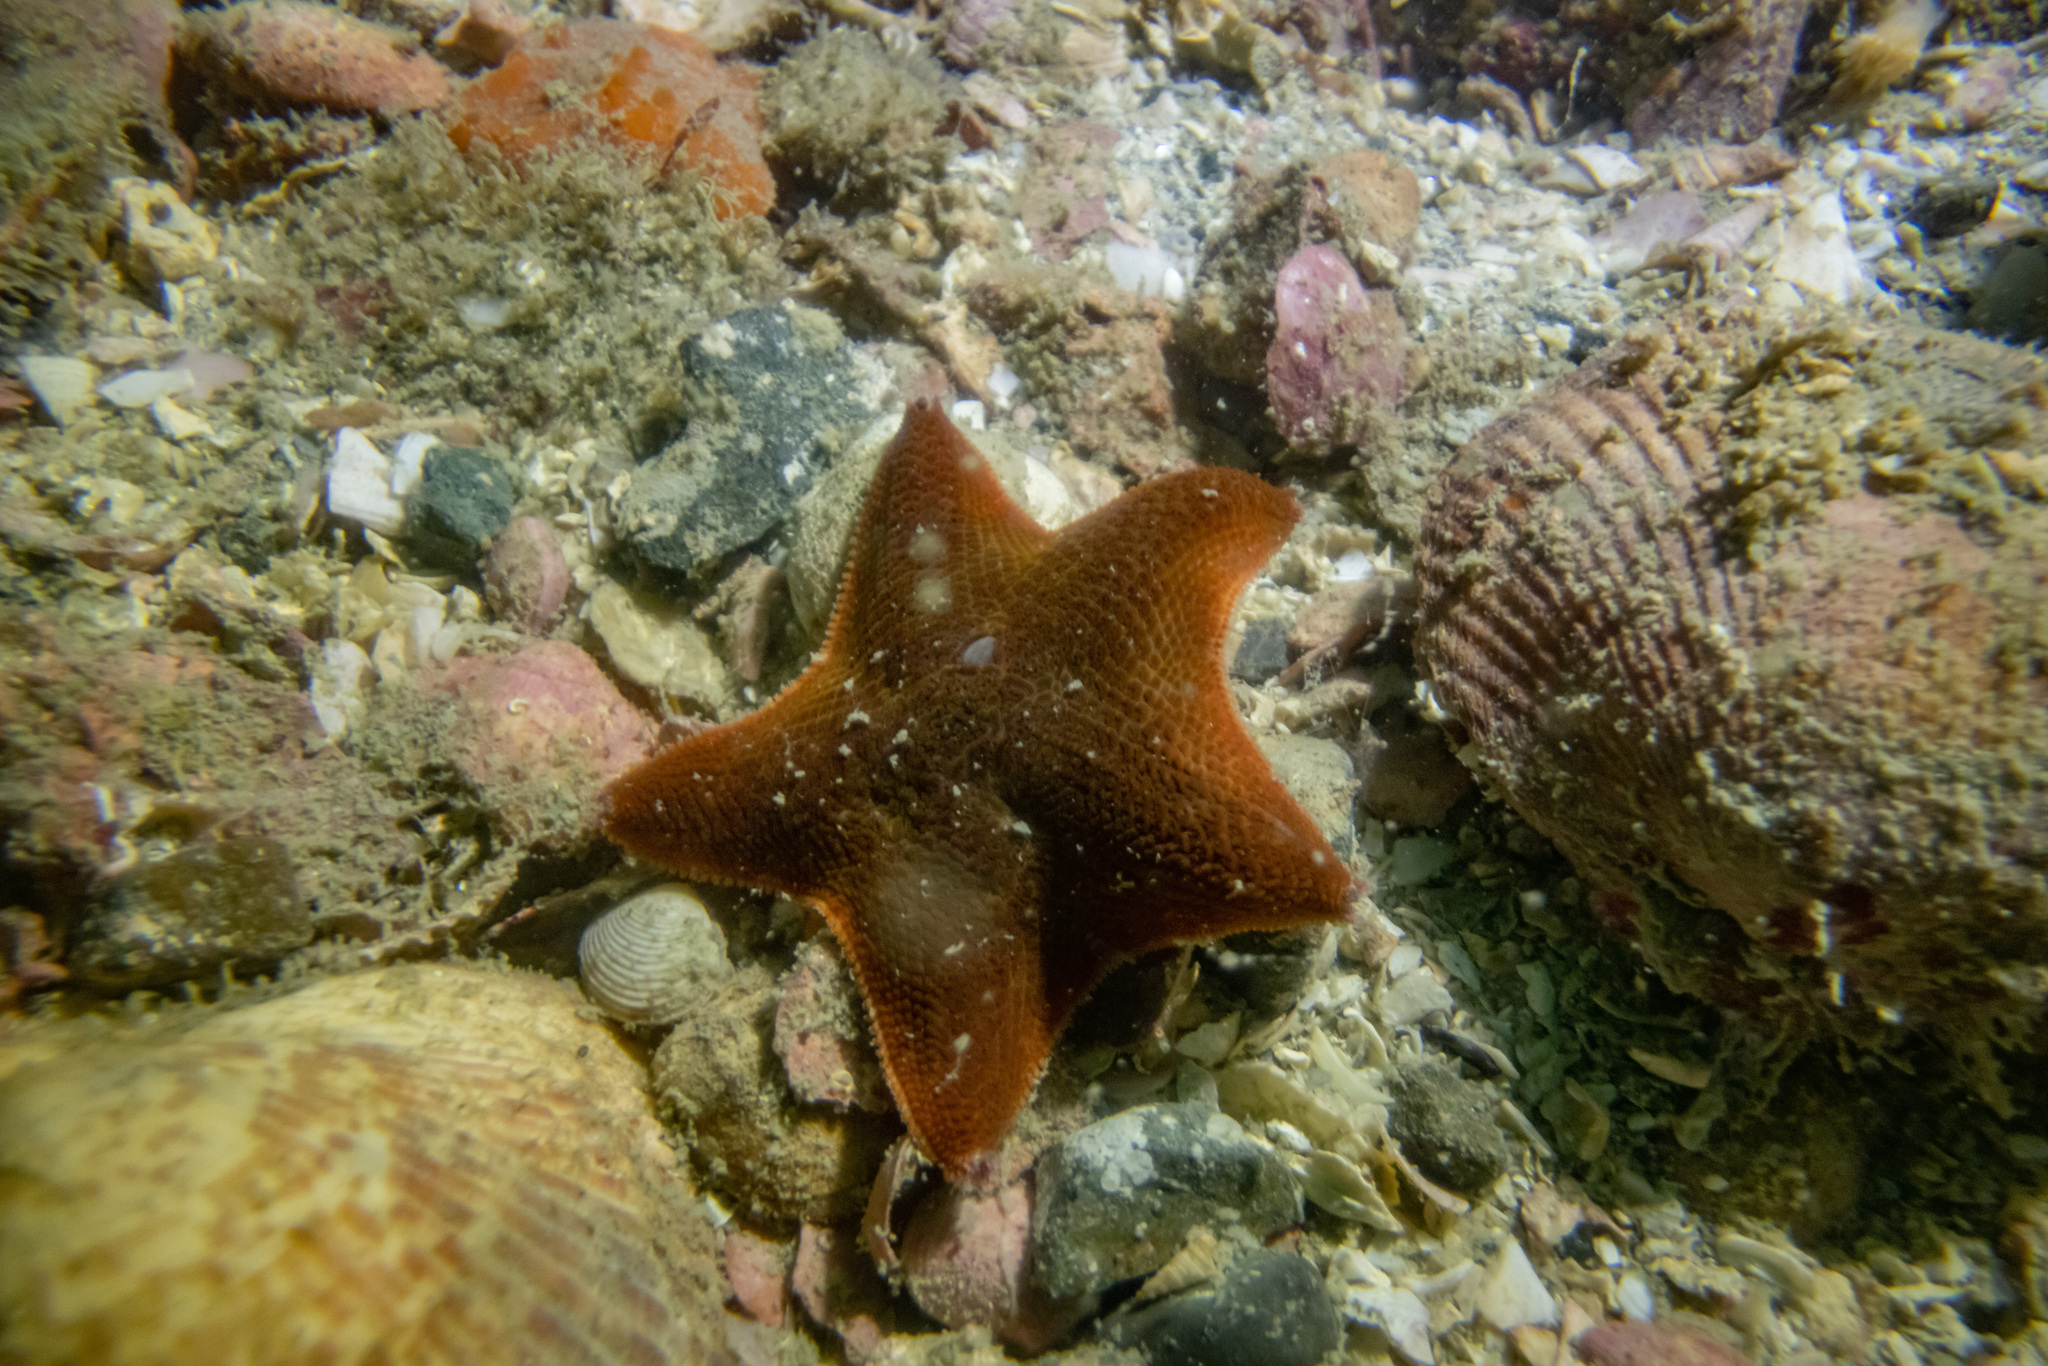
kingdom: Animalia
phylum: Echinodermata
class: Asteroidea
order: Valvatida
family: Asterinidae
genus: Patiriella
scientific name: Patiriella regularis
